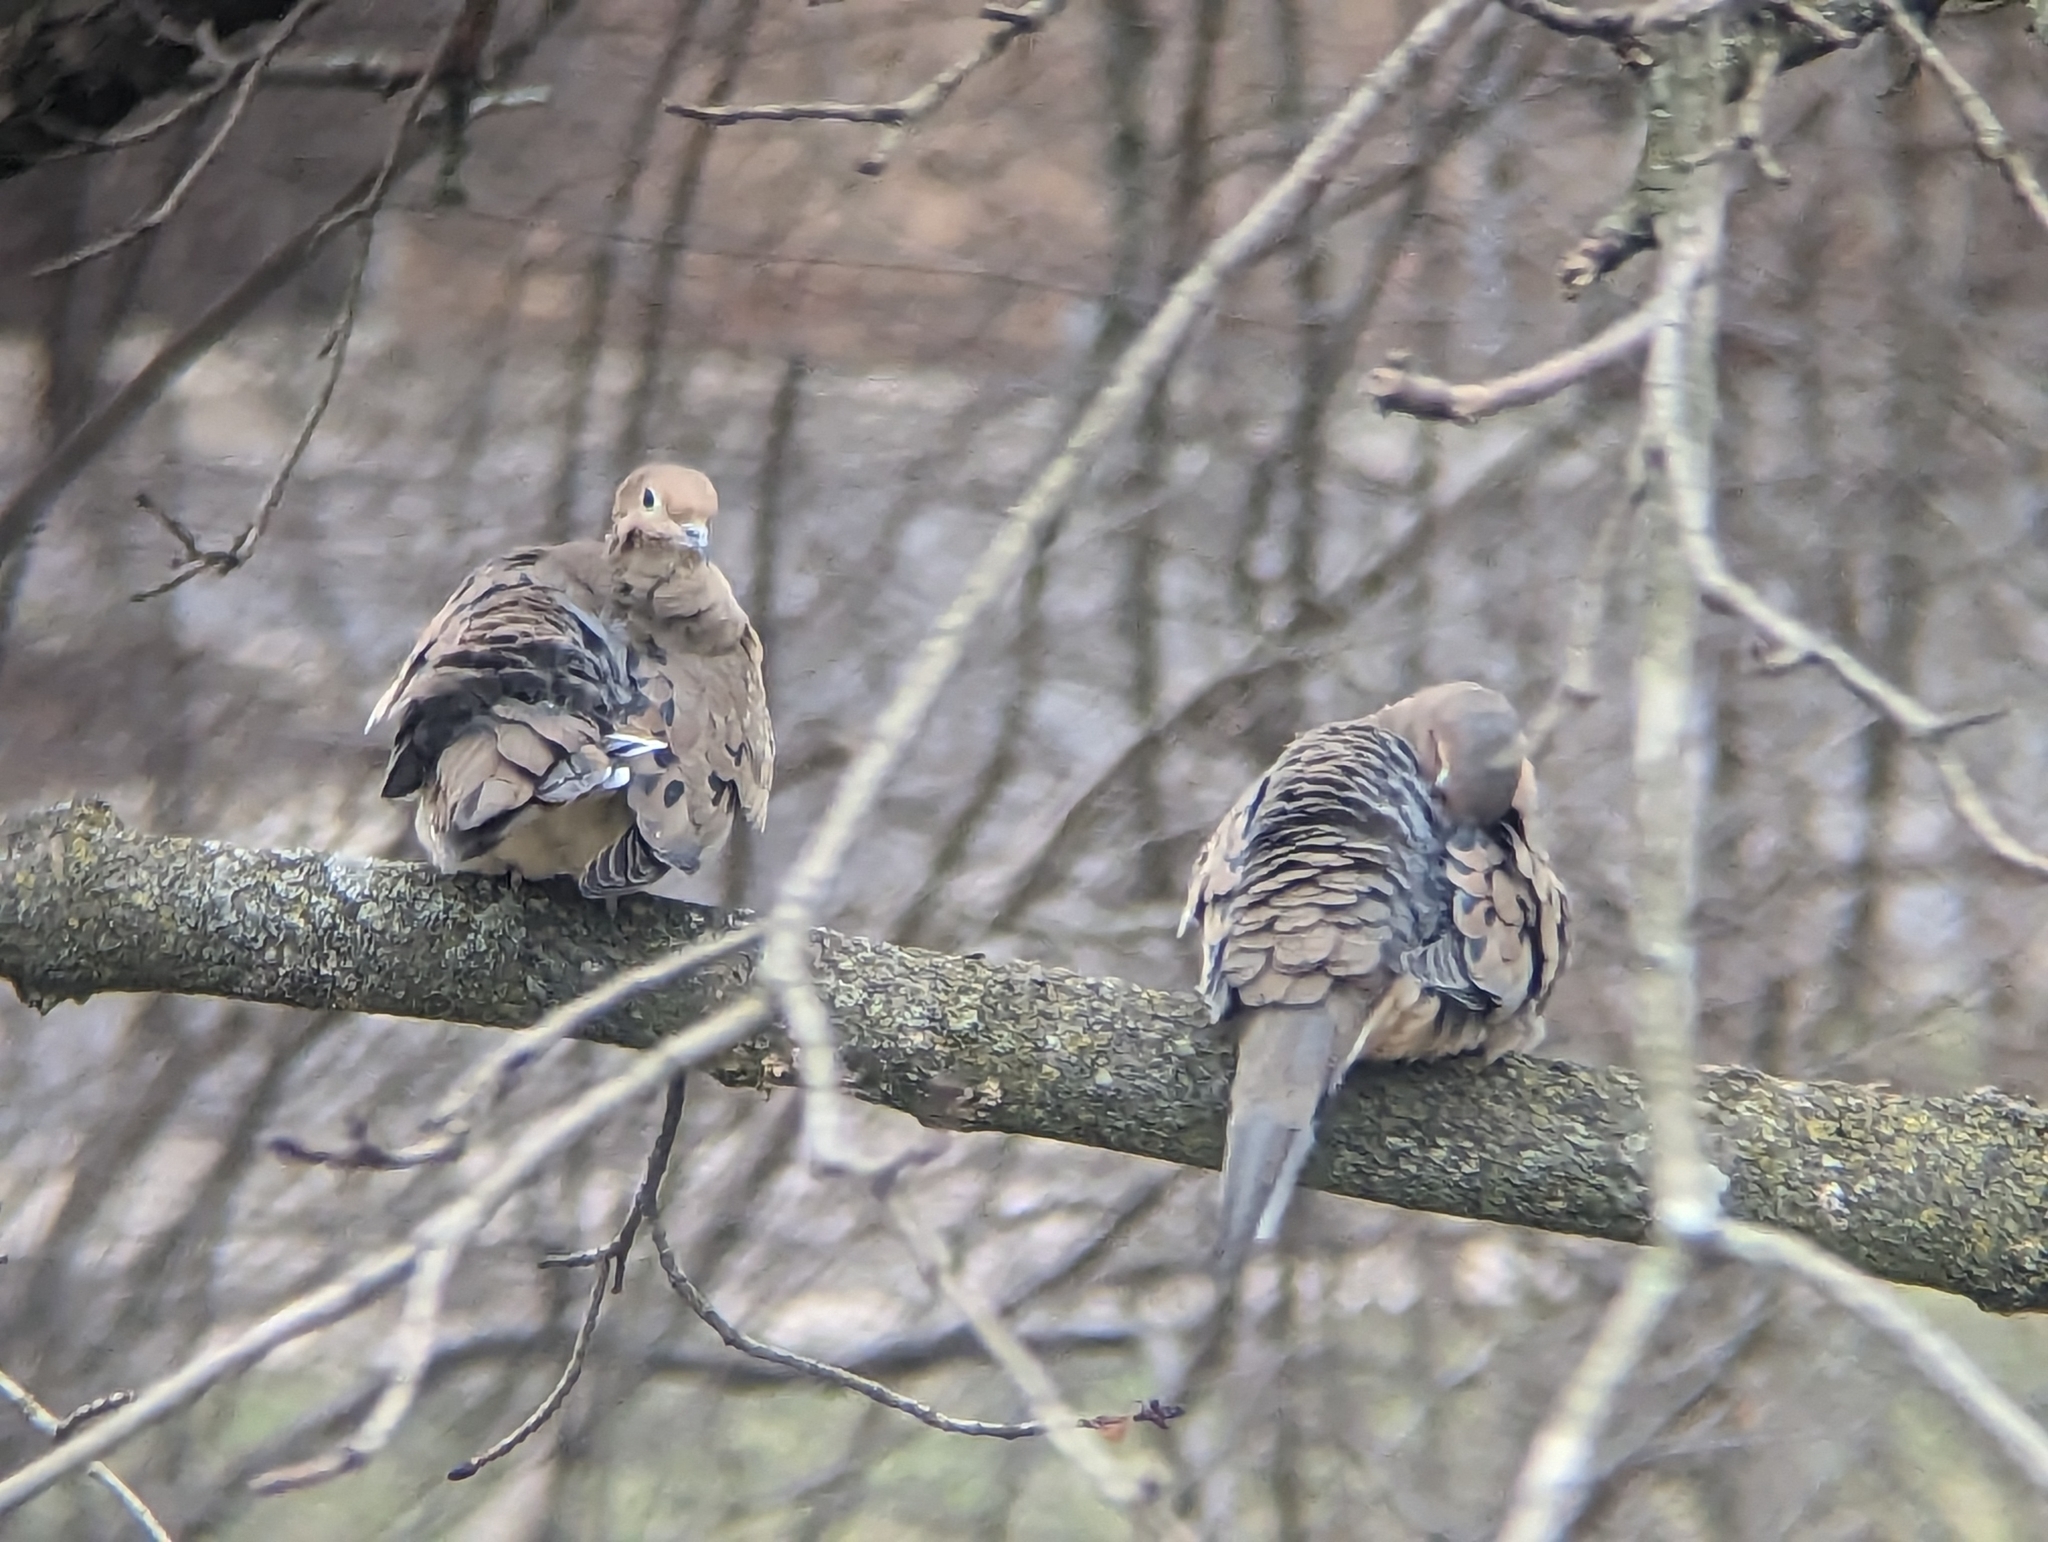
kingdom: Animalia
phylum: Chordata
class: Aves
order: Columbiformes
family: Columbidae
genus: Zenaida
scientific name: Zenaida macroura
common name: Mourning dove
